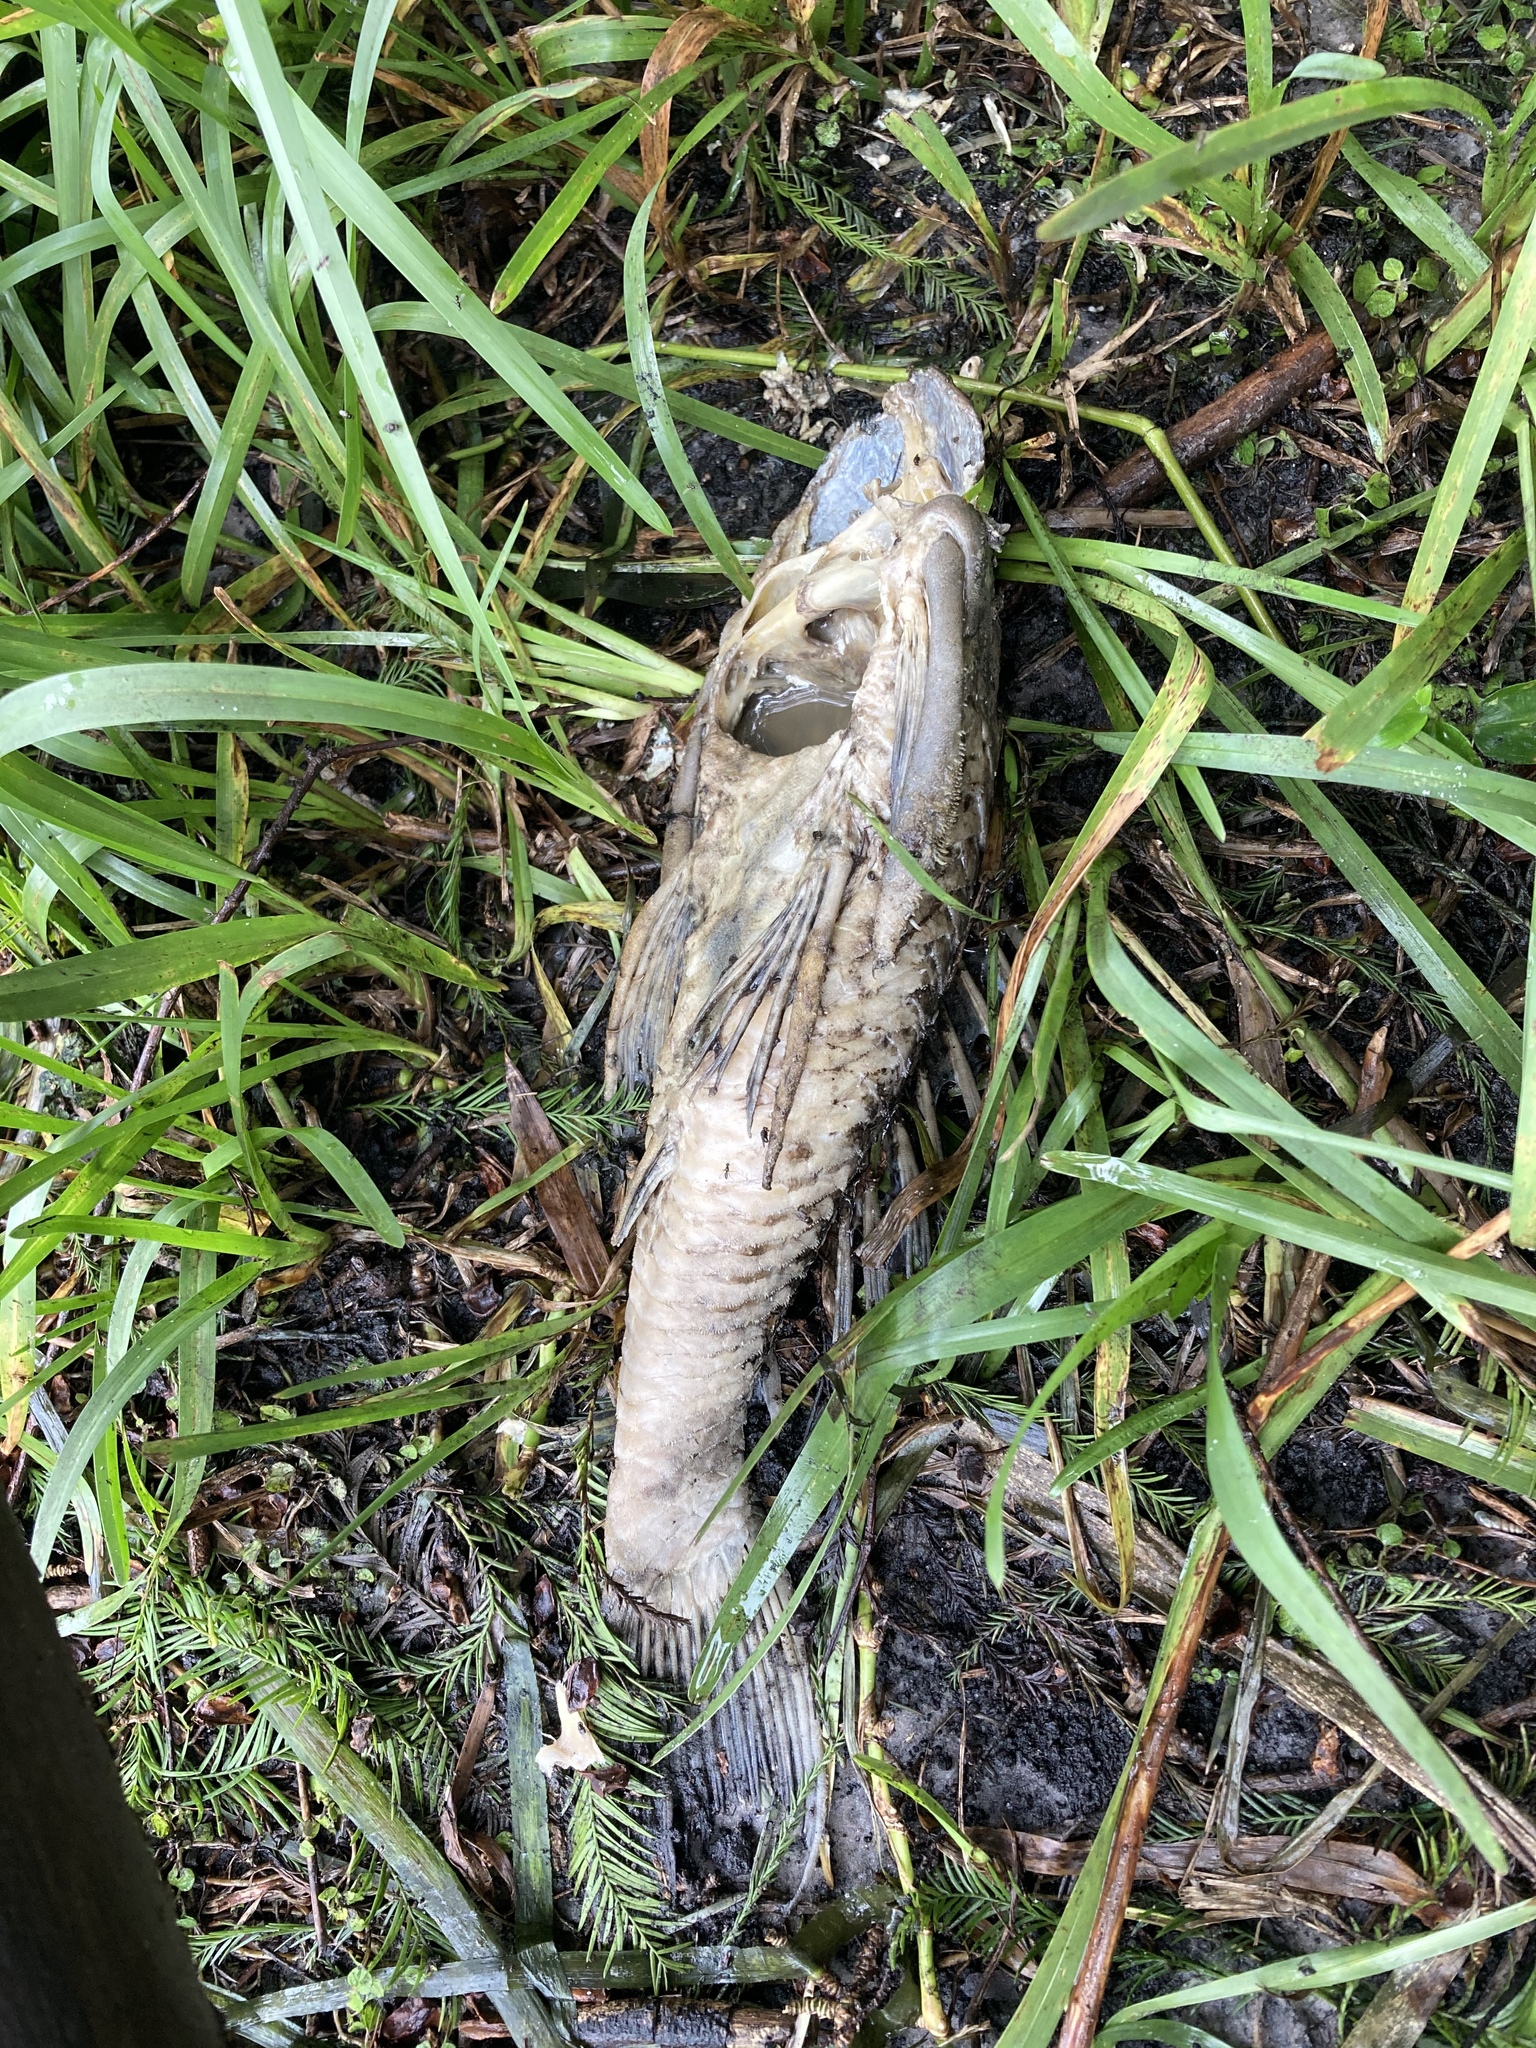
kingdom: Animalia
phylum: Chordata
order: Siluriformes
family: Loricariidae
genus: Pterygoplichthys
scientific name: Pterygoplichthys
